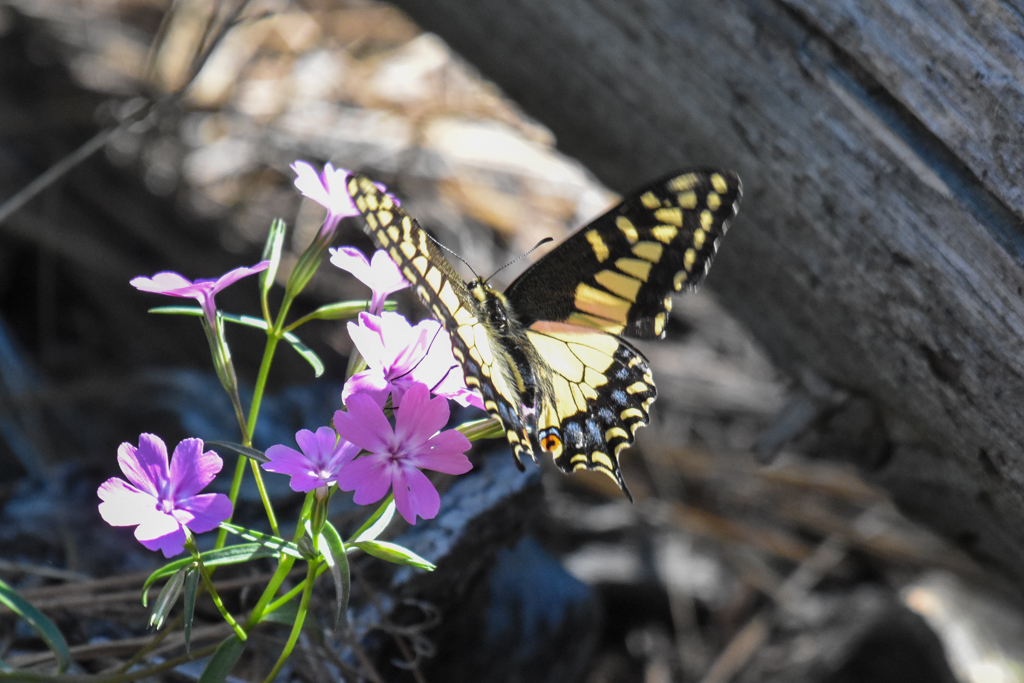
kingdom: Animalia
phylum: Arthropoda
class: Insecta
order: Lepidoptera
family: Papilionidae
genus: Papilio
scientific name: Papilio zelicaon
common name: Anise swallowtail
